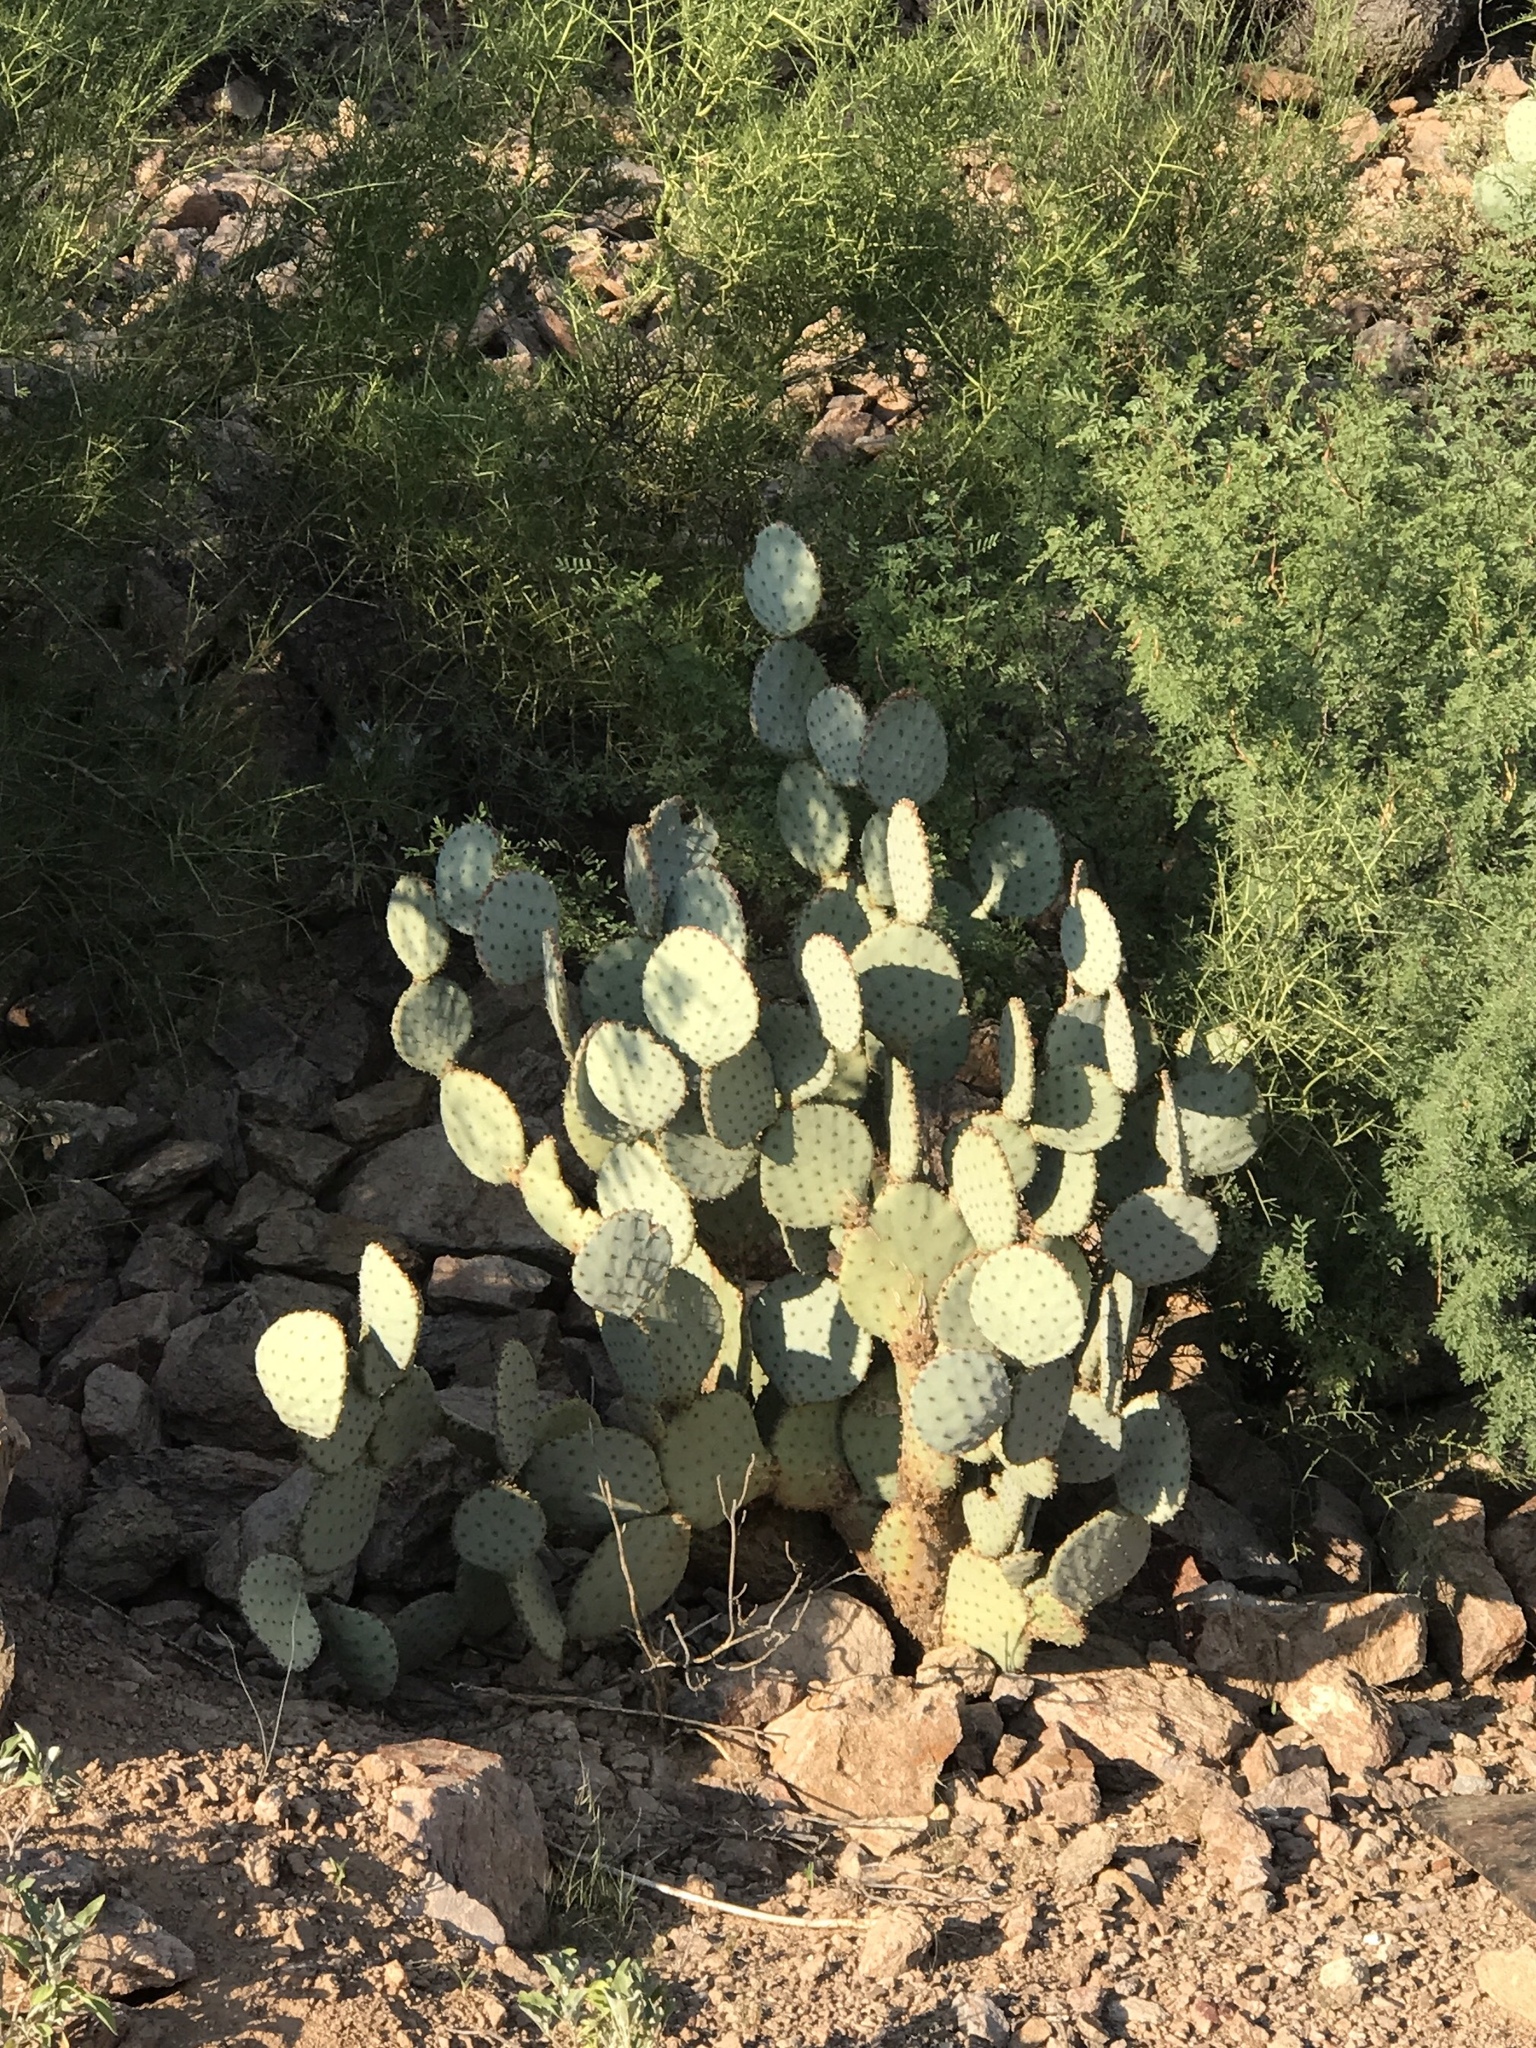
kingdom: Plantae
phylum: Tracheophyta
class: Magnoliopsida
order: Caryophyllales
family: Cactaceae
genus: Opuntia
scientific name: Opuntia gosseliniana
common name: Violet prickly-pear
